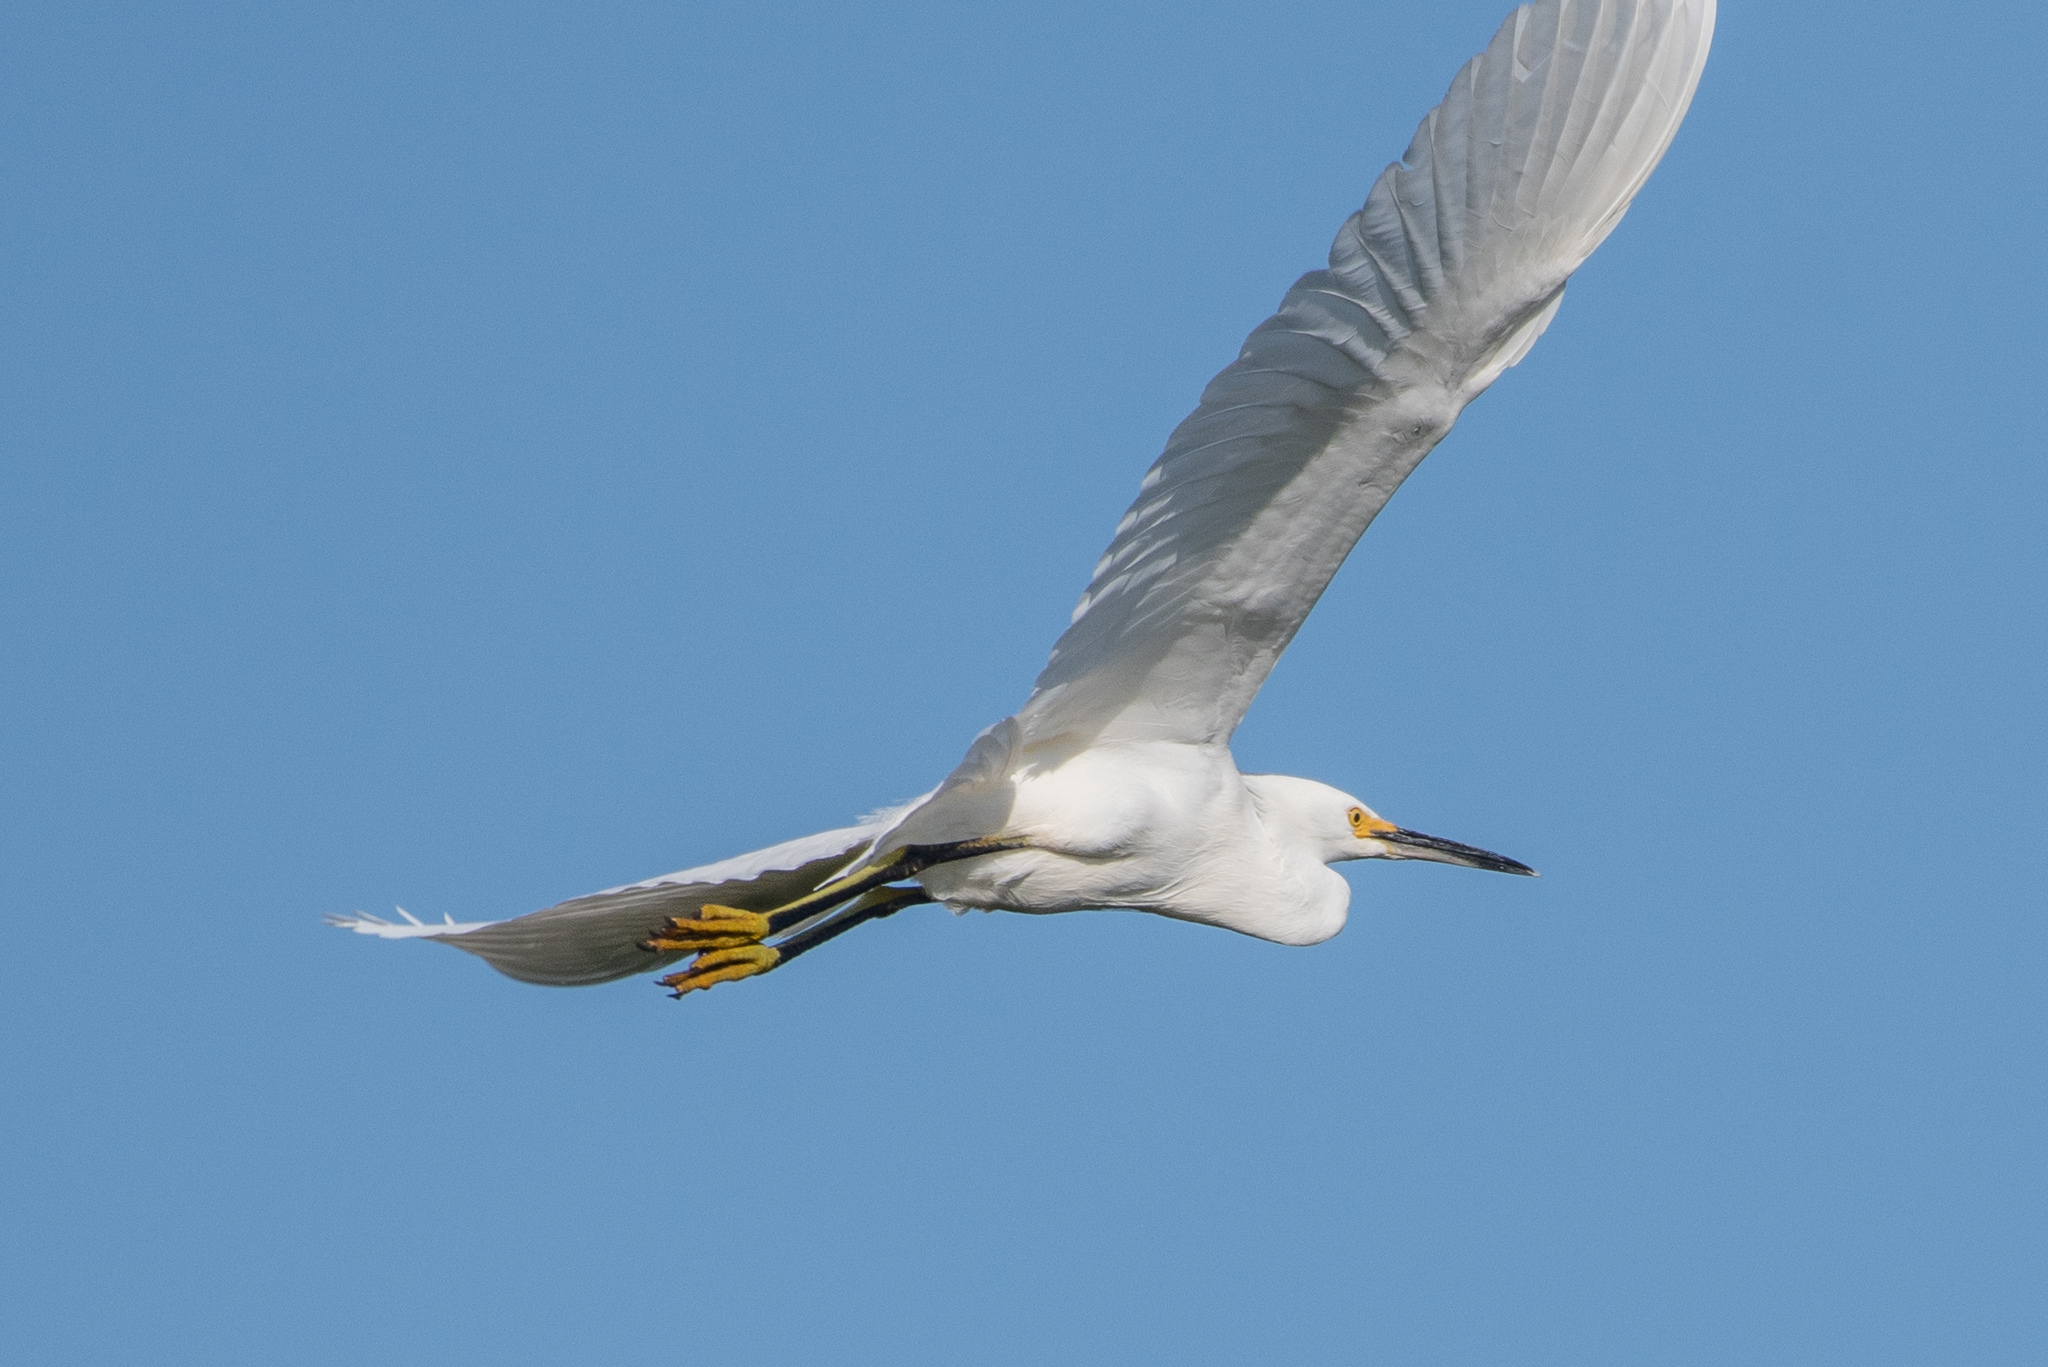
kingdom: Animalia
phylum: Chordata
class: Aves
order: Pelecaniformes
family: Ardeidae
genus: Egretta
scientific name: Egretta thula
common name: Snowy egret
